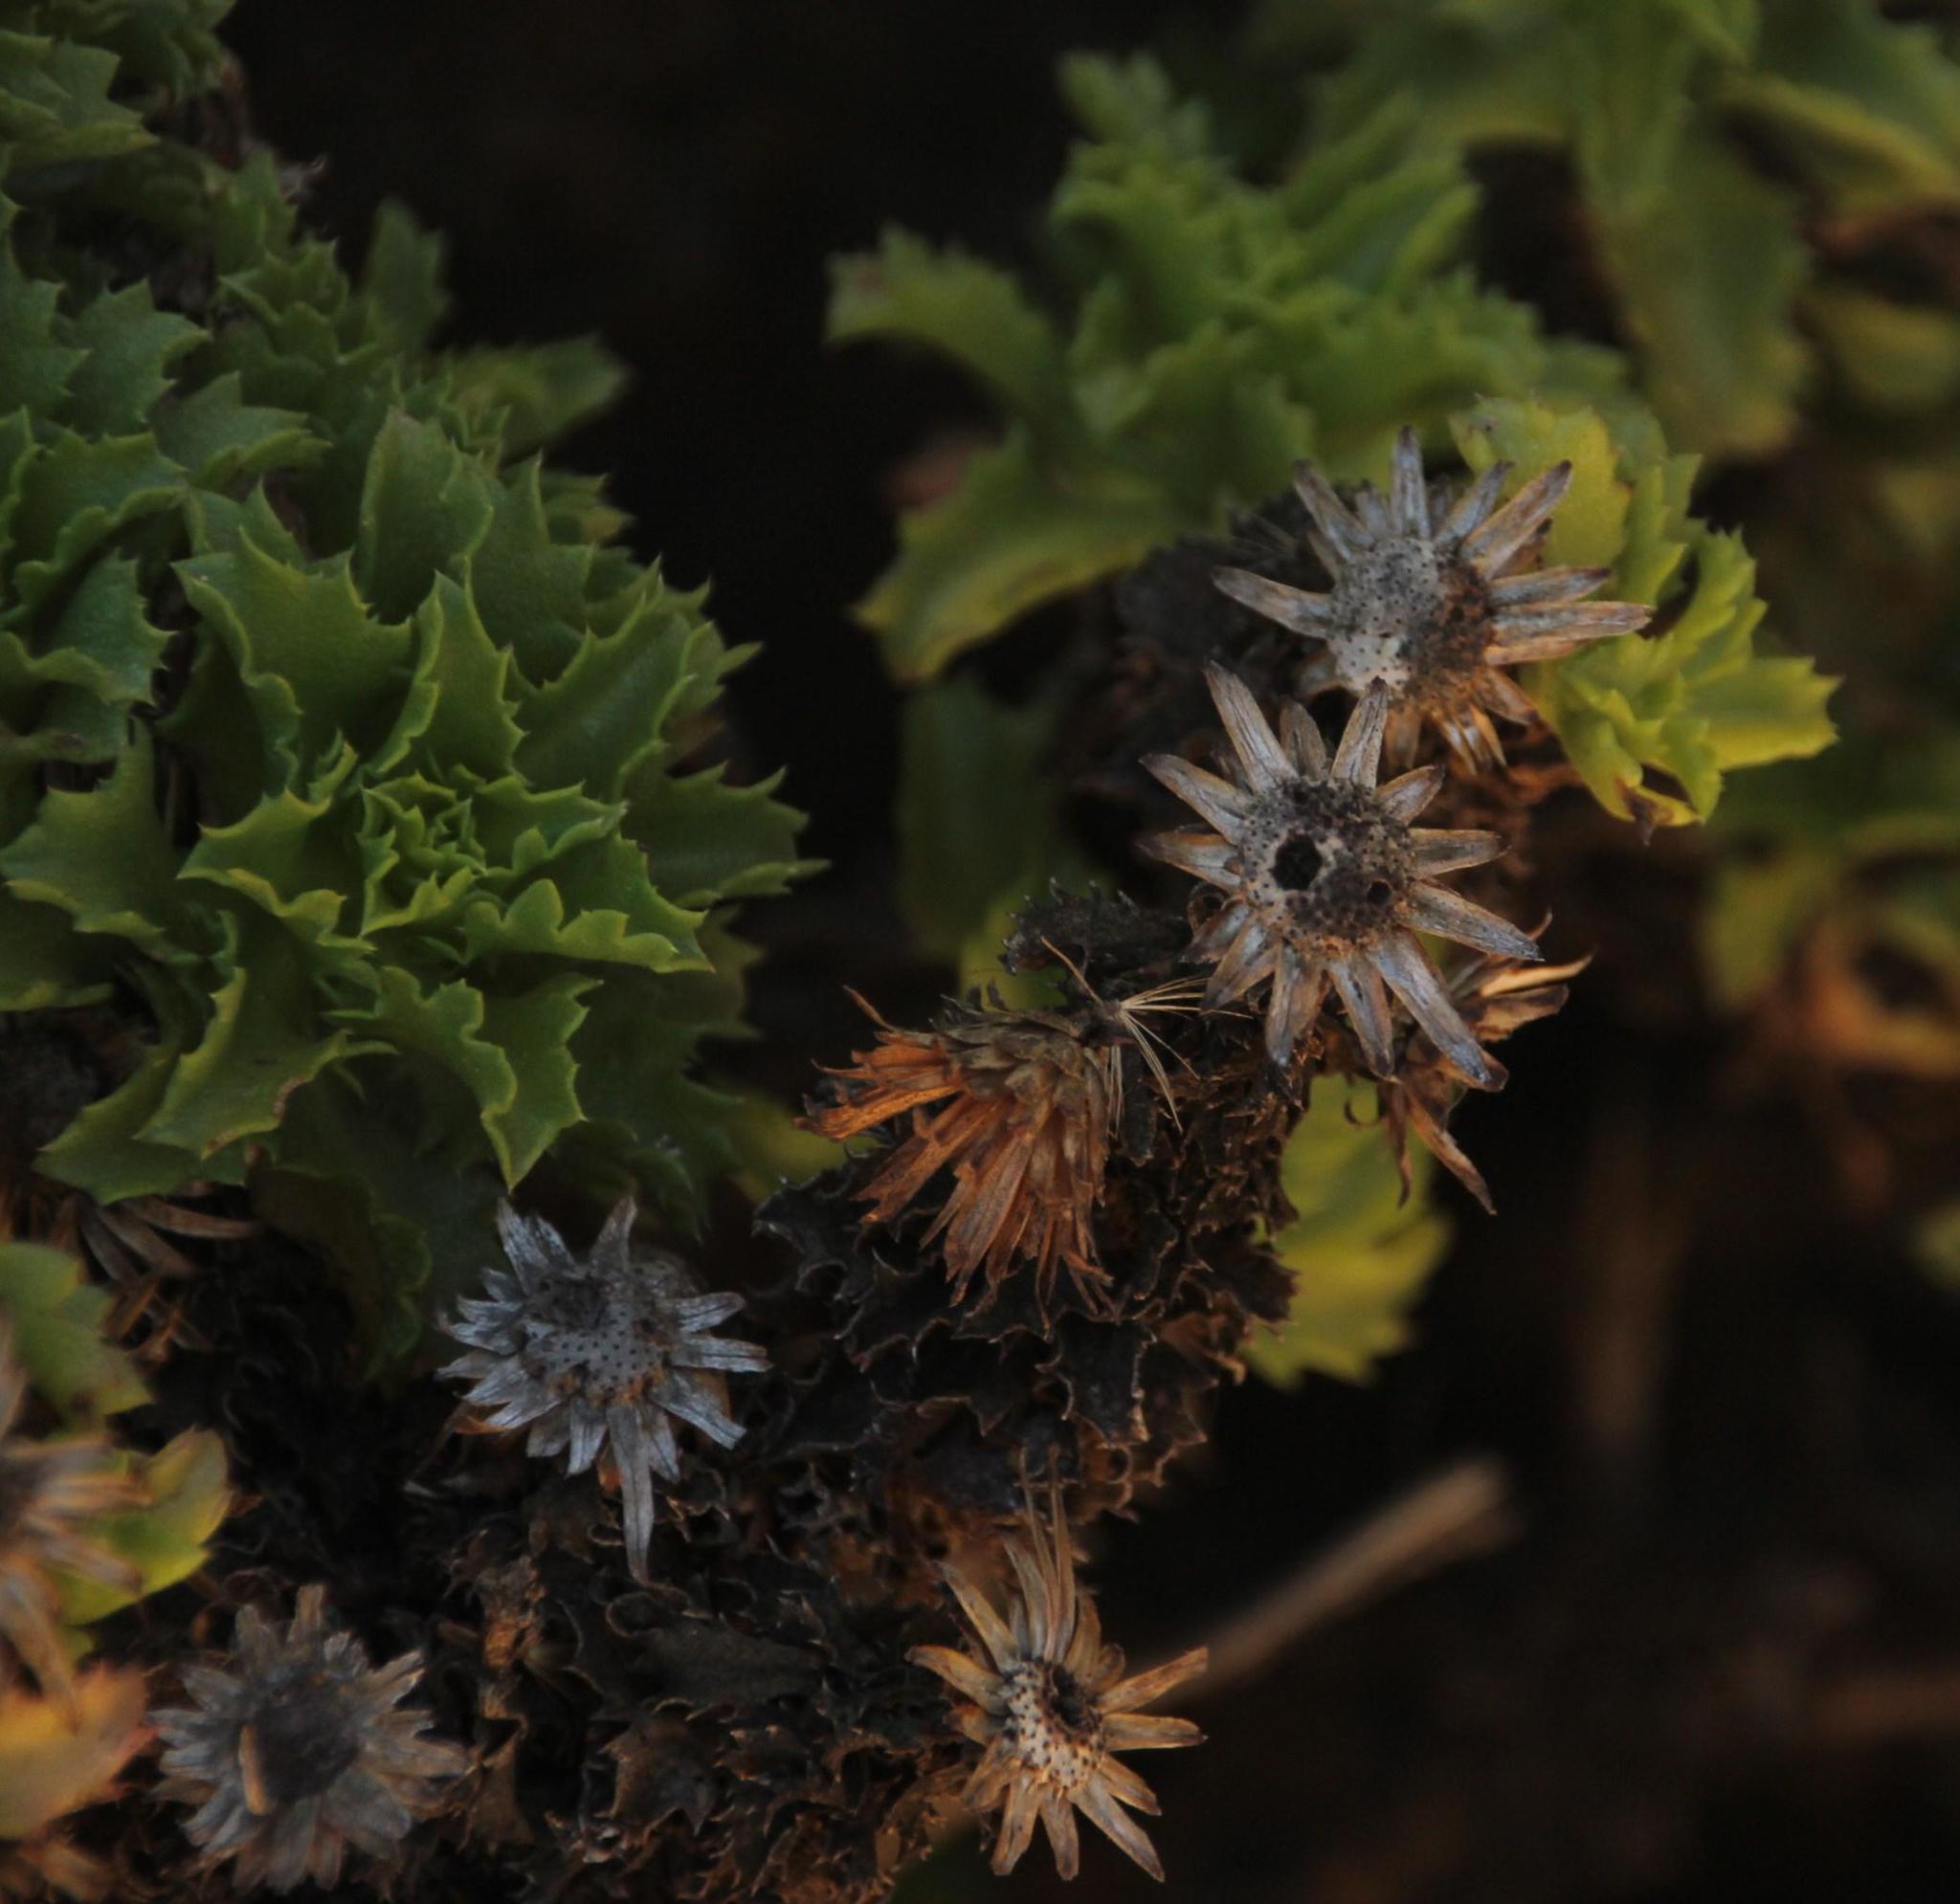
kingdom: Plantae
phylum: Tracheophyta
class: Magnoliopsida
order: Asterales
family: Asteraceae
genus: Haplopappus
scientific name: Haplopappus foliosus
